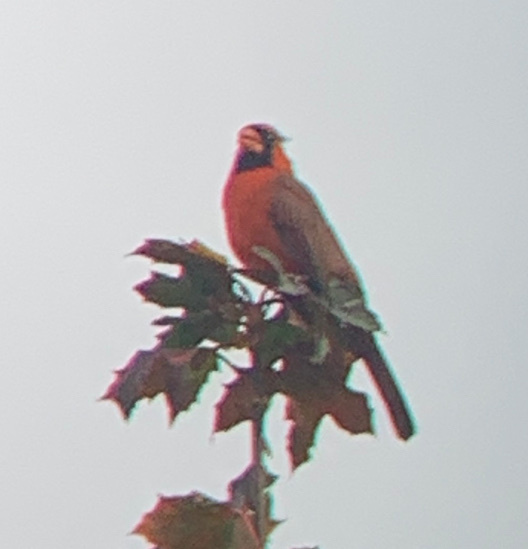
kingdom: Animalia
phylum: Chordata
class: Aves
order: Passeriformes
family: Cardinalidae
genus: Cardinalis
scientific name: Cardinalis cardinalis
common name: Northern cardinal
